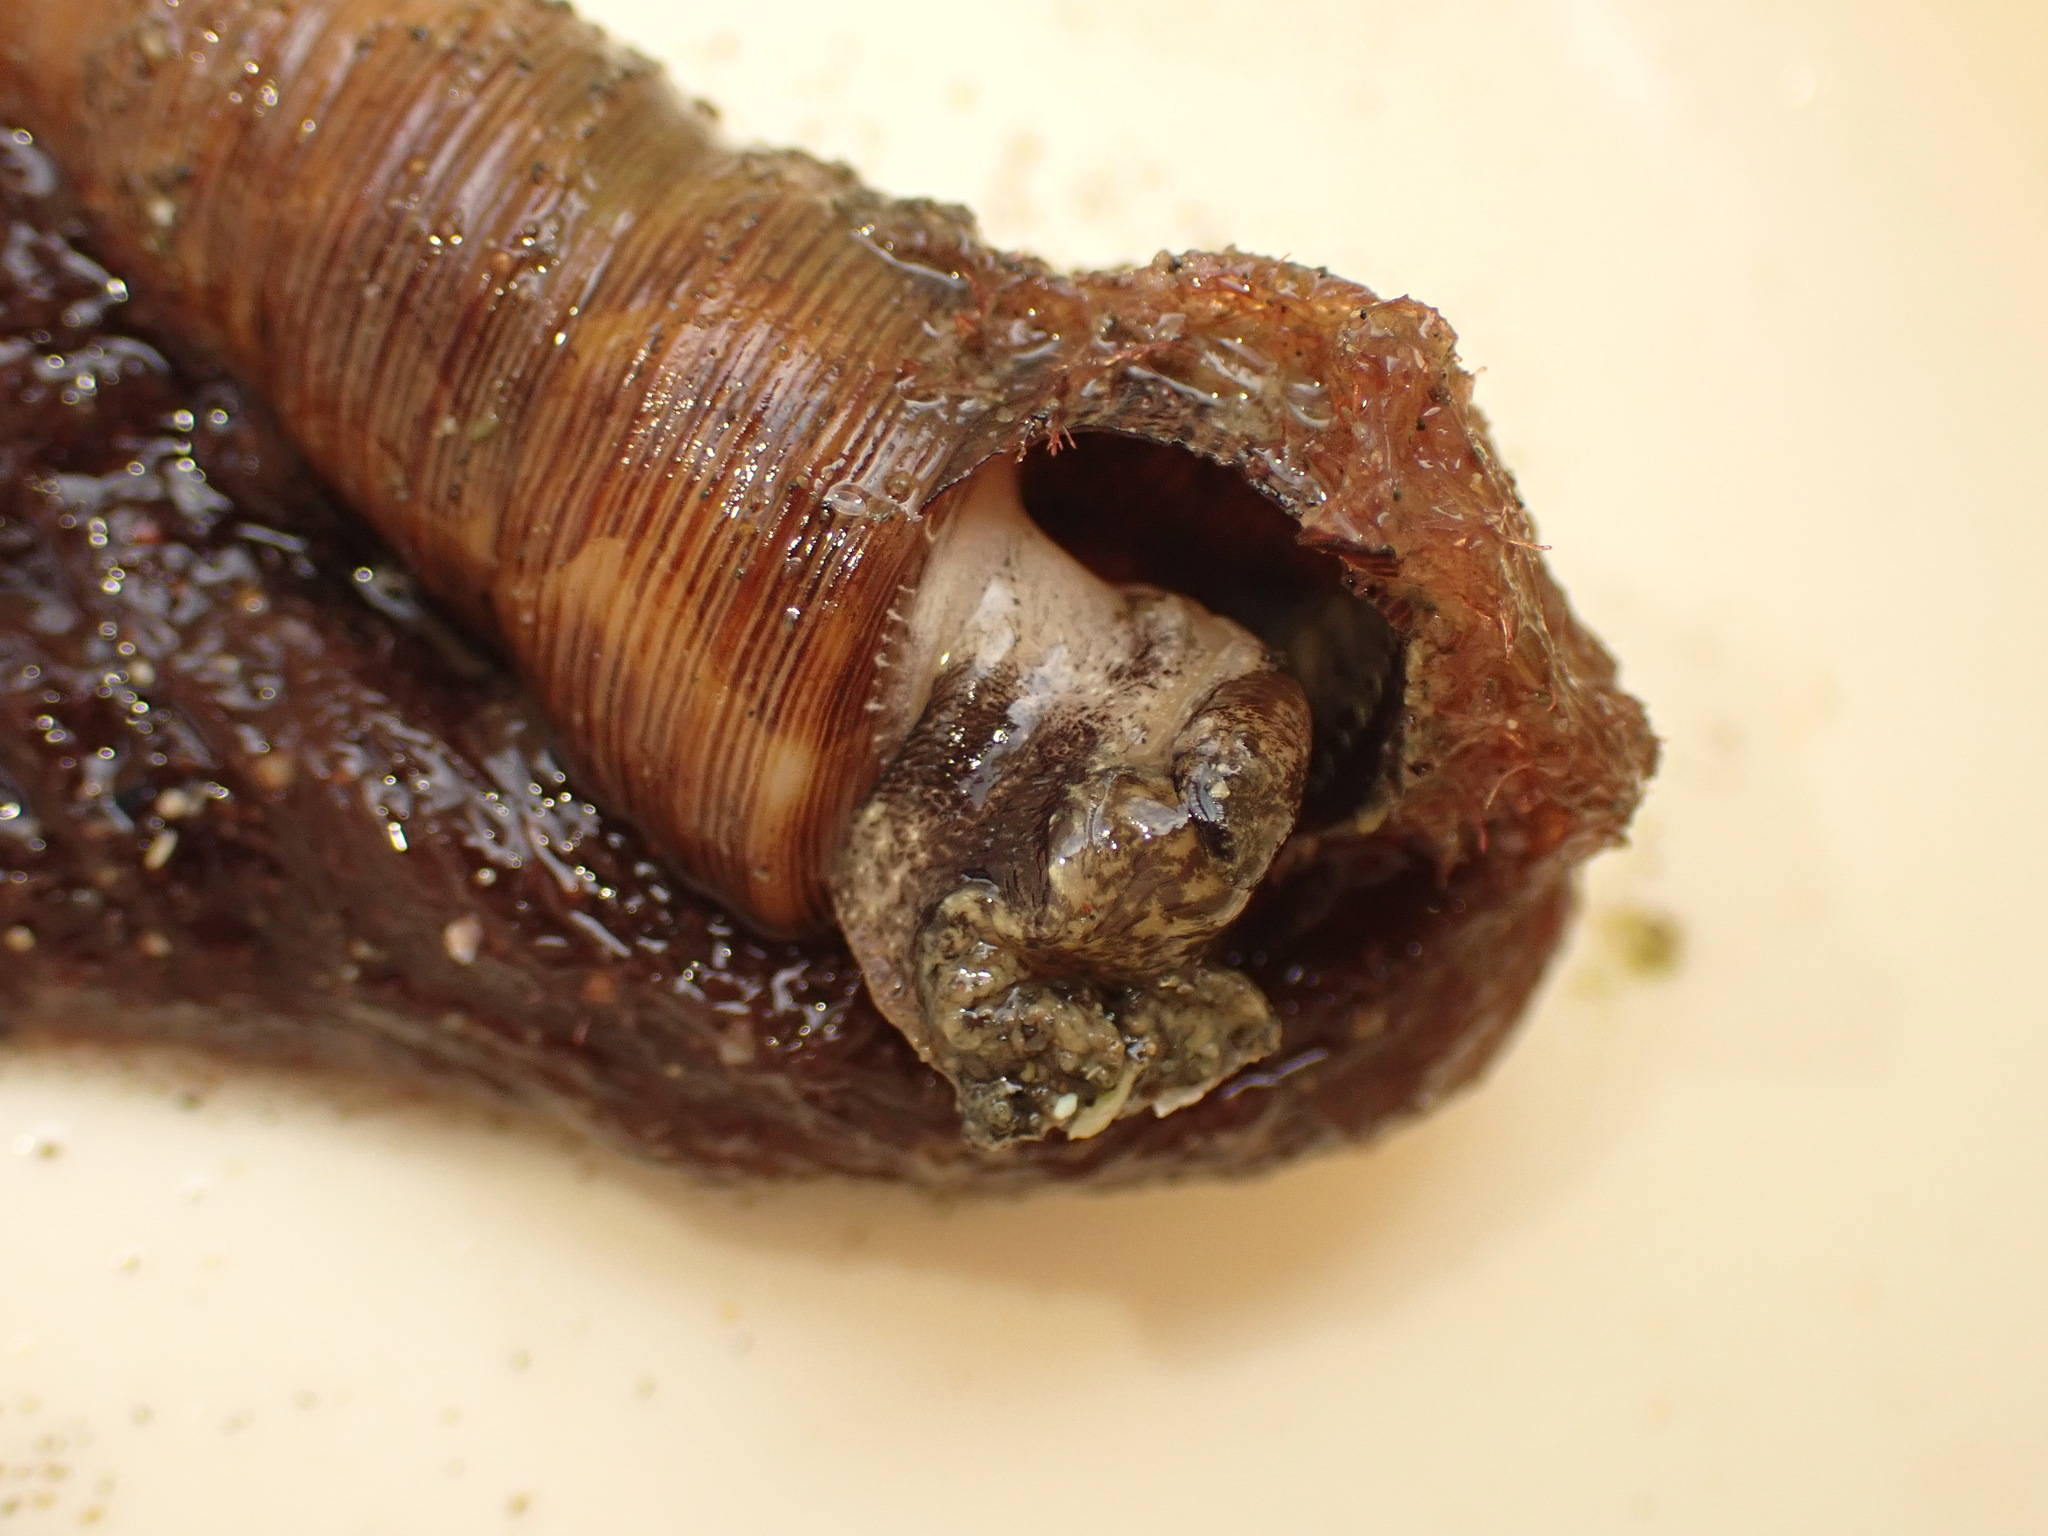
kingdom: Animalia
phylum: Mollusca
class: Gastropoda
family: Turritellidae
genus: Maoricolpus
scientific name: Maoricolpus roseus
